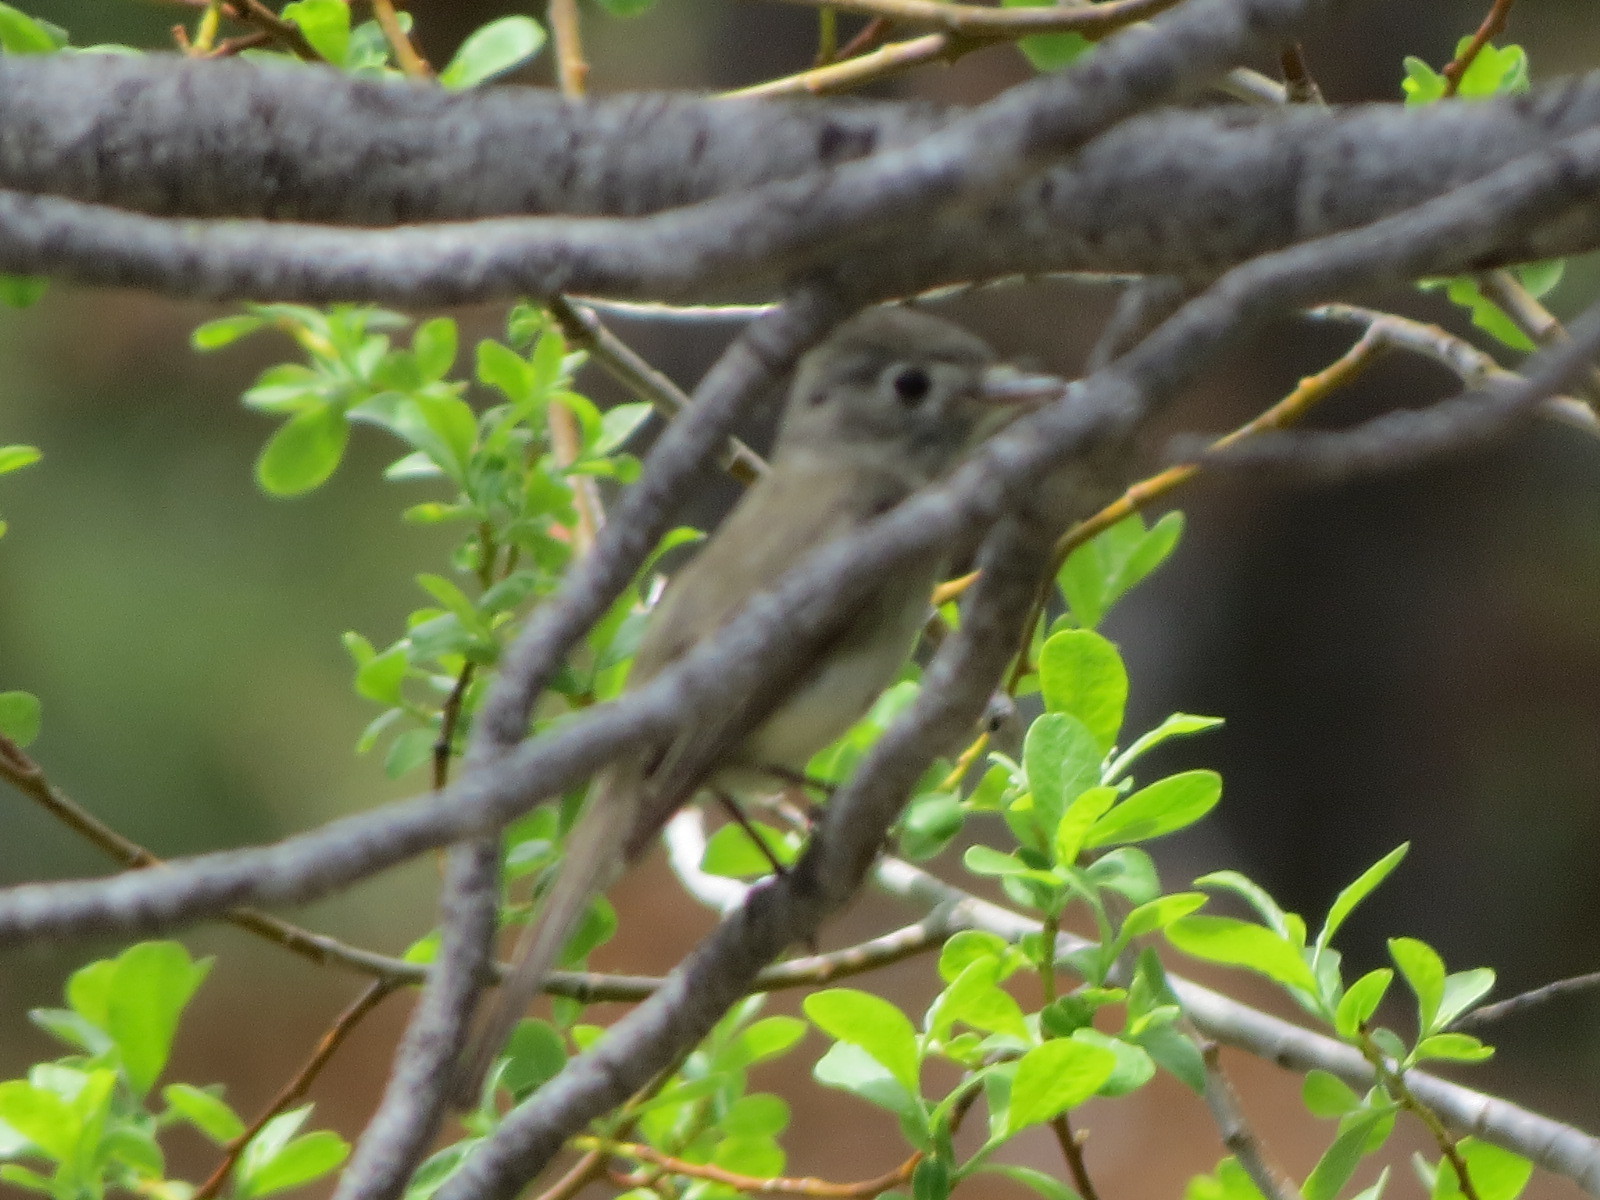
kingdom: Animalia
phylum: Chordata
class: Aves
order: Passeriformes
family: Tyrannidae
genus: Empidonax
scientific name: Empidonax oberholseri
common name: Dusky flycatcher
